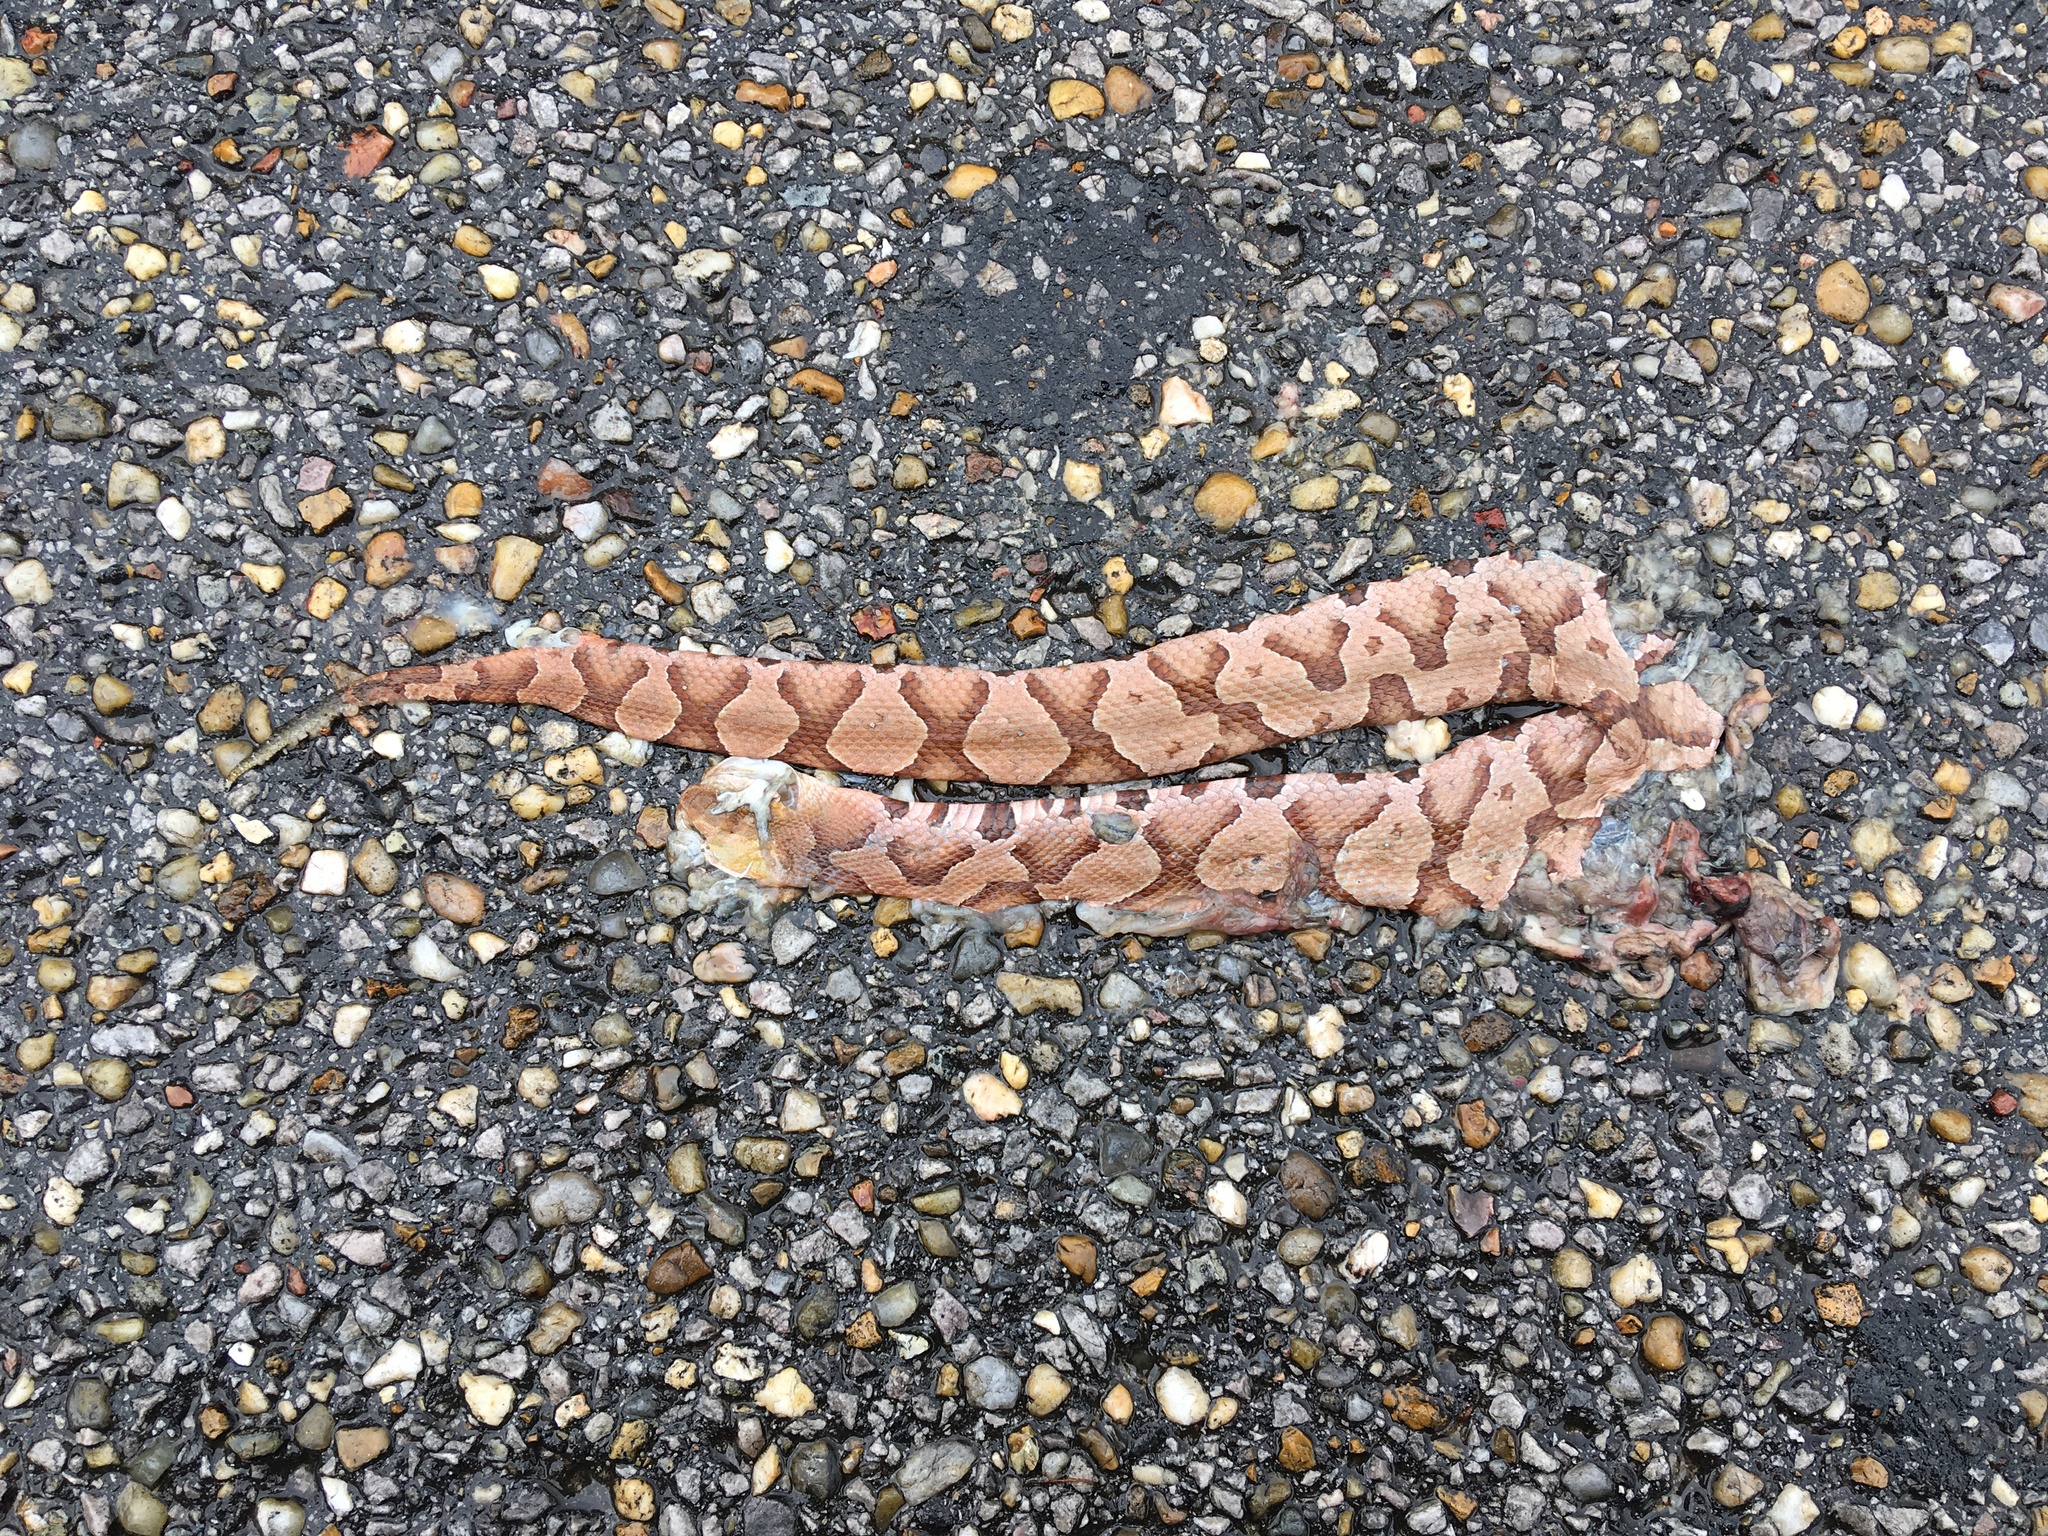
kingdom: Animalia
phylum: Chordata
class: Squamata
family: Viperidae
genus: Agkistrodon
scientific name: Agkistrodon contortrix
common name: Northern copperhead
